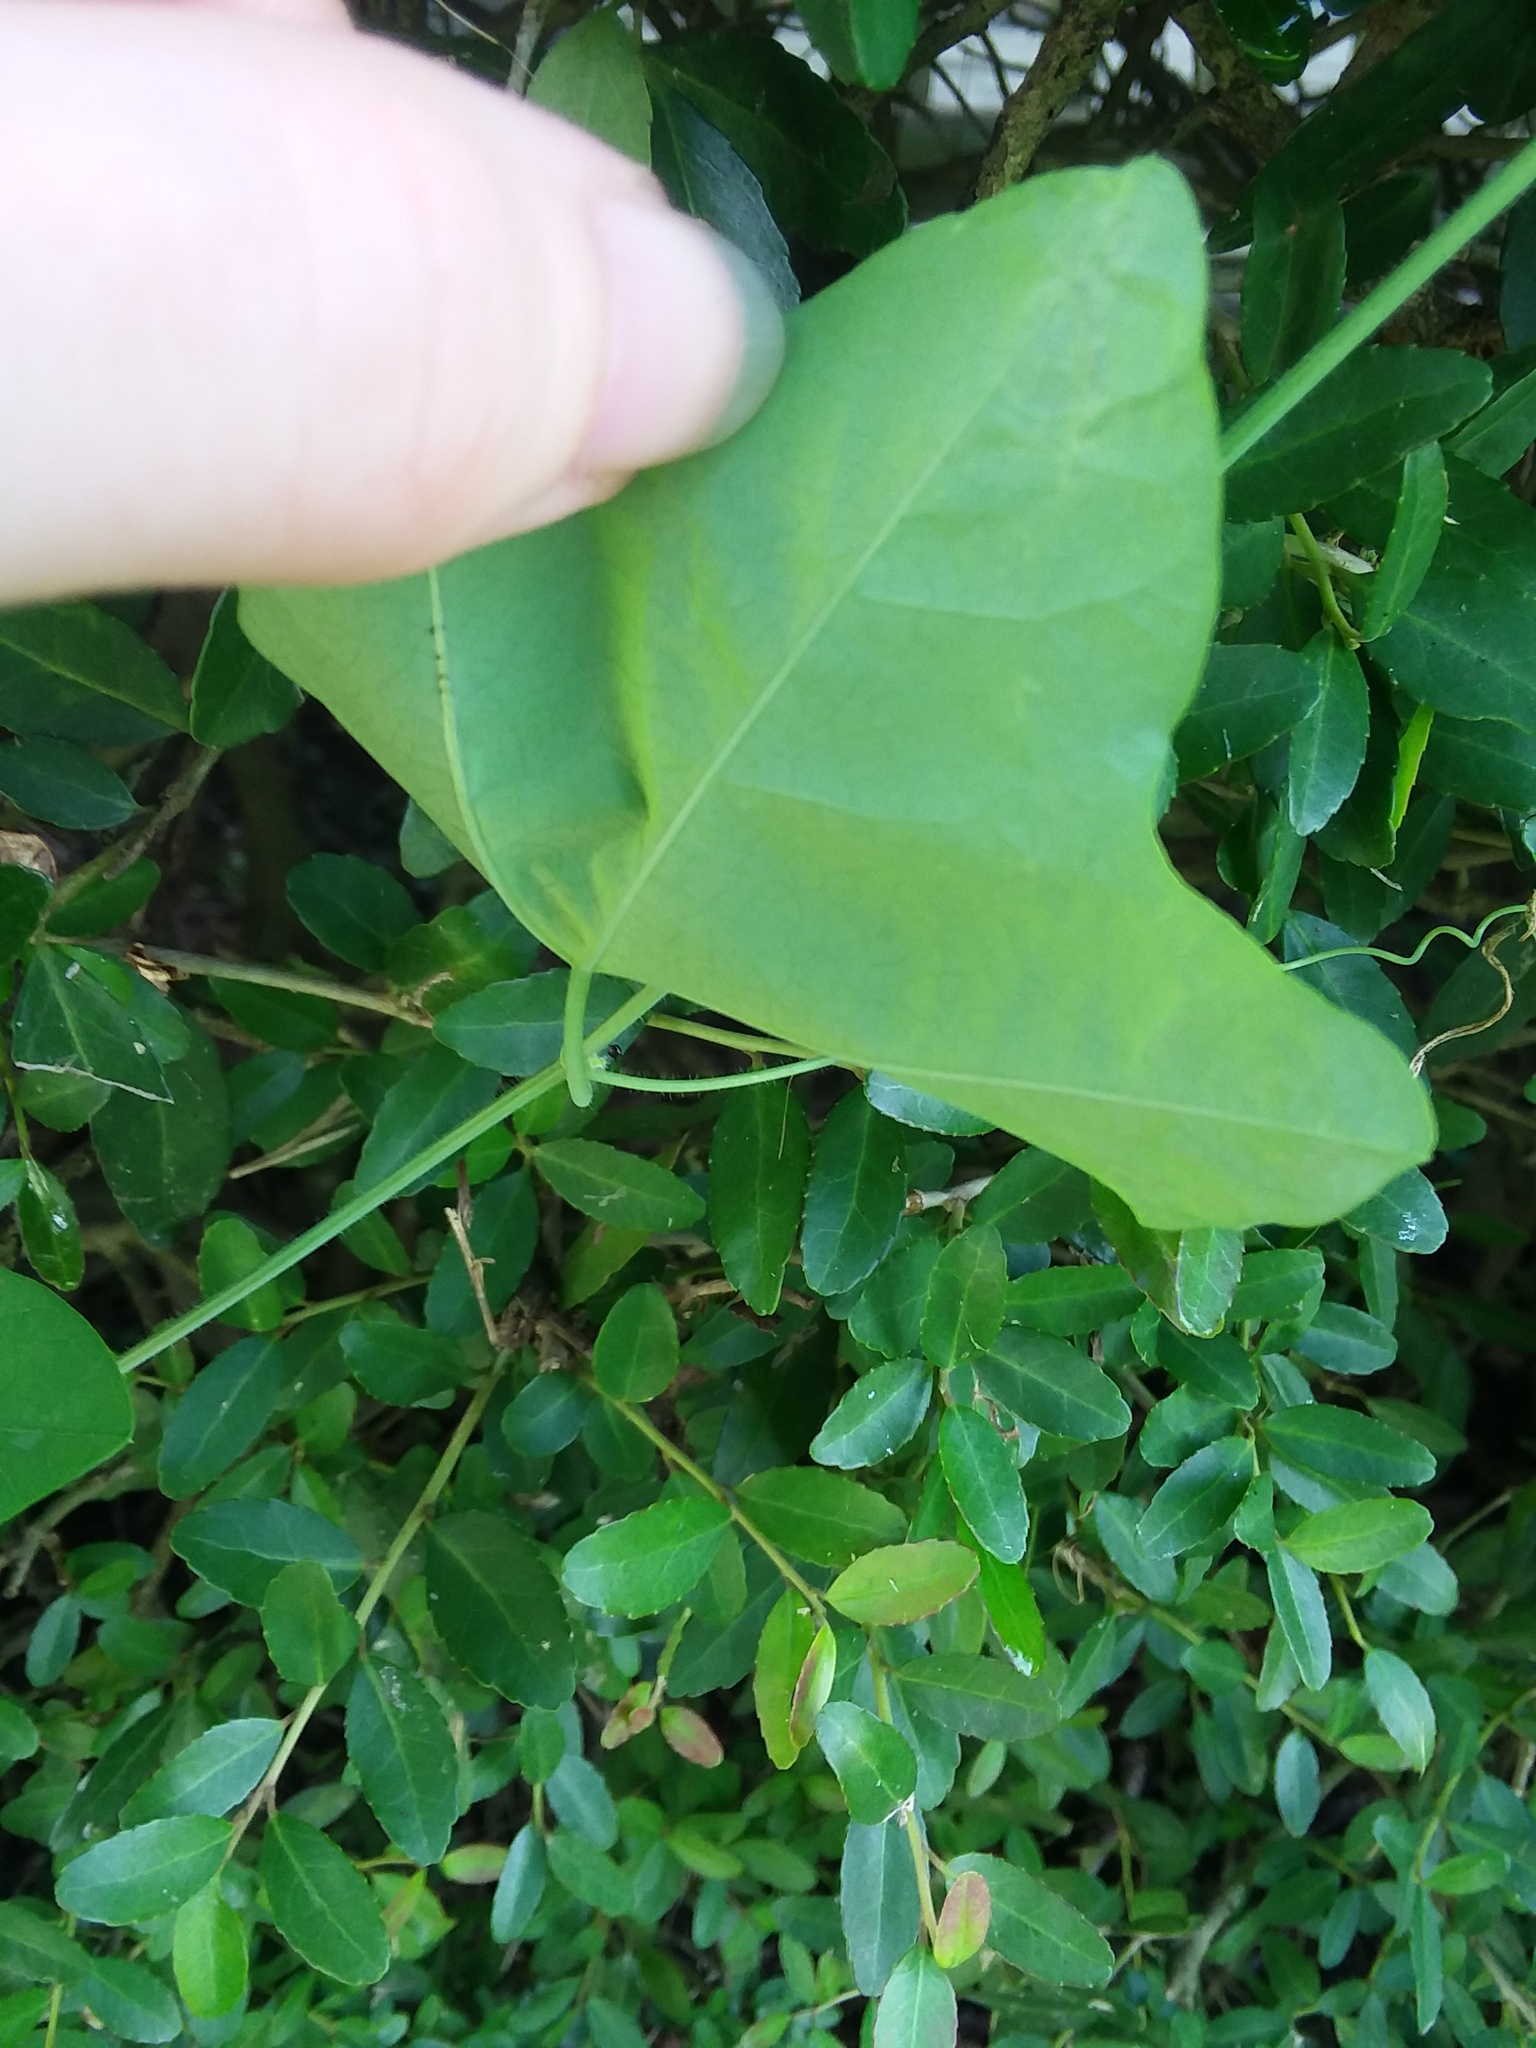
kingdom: Plantae
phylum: Tracheophyta
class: Magnoliopsida
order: Malpighiales
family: Passifloraceae
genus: Passiflora
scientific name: Passiflora lutea
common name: Yellow passionflower
